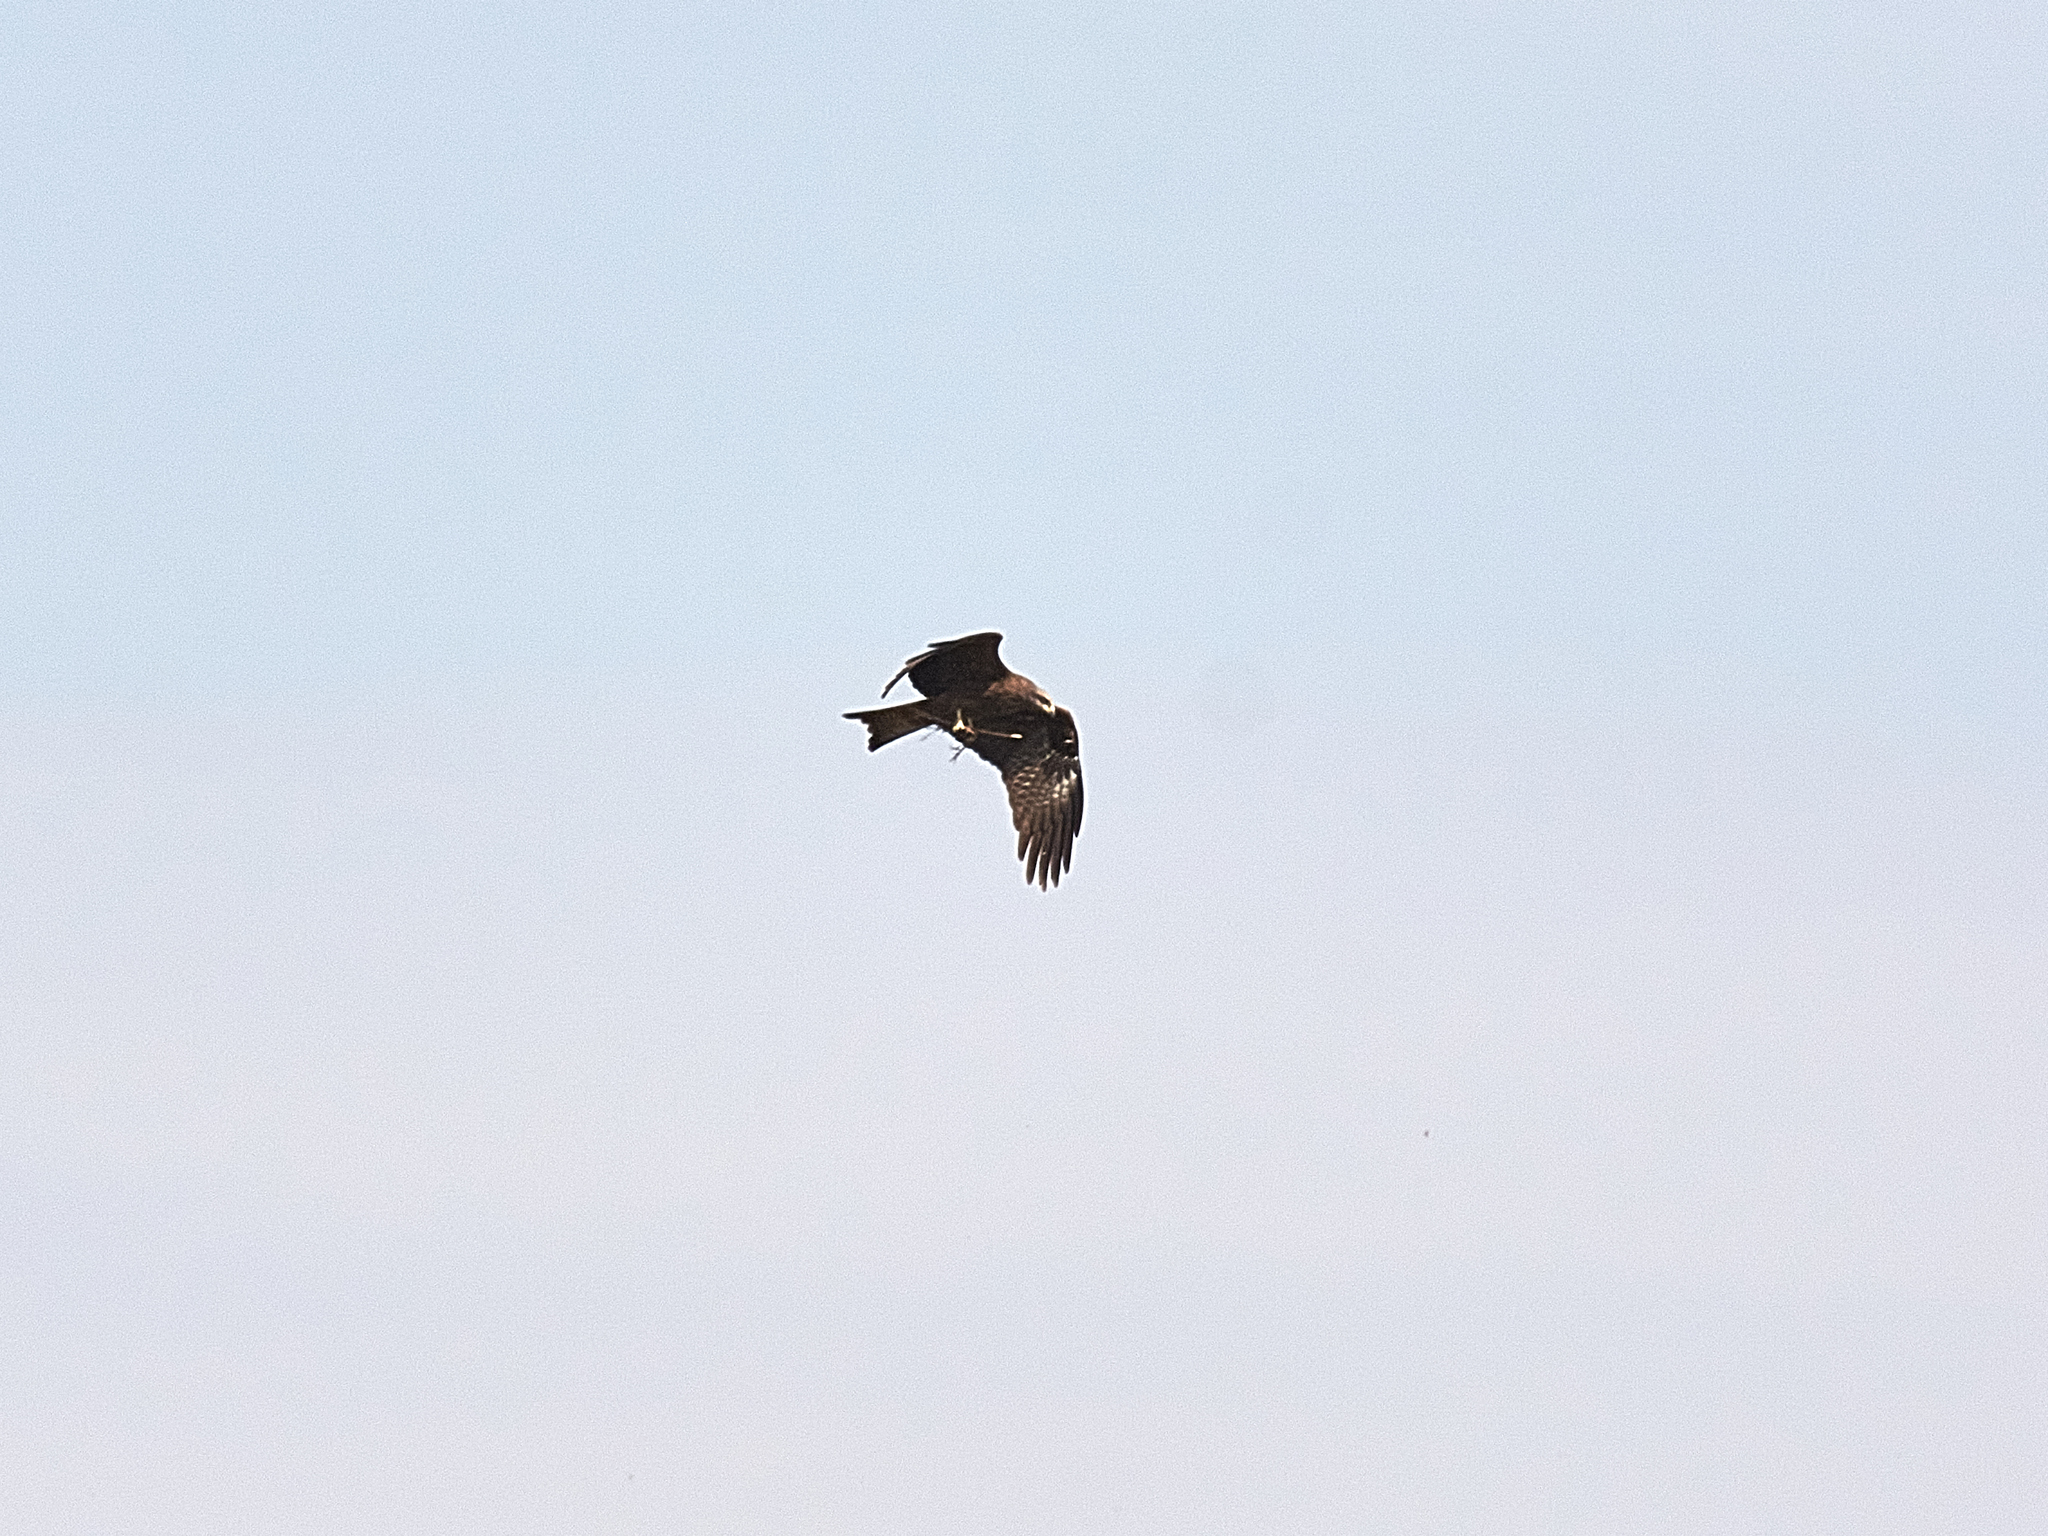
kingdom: Animalia
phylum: Chordata
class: Aves
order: Accipitriformes
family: Accipitridae
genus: Milvus
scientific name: Milvus migrans
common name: Black kite
